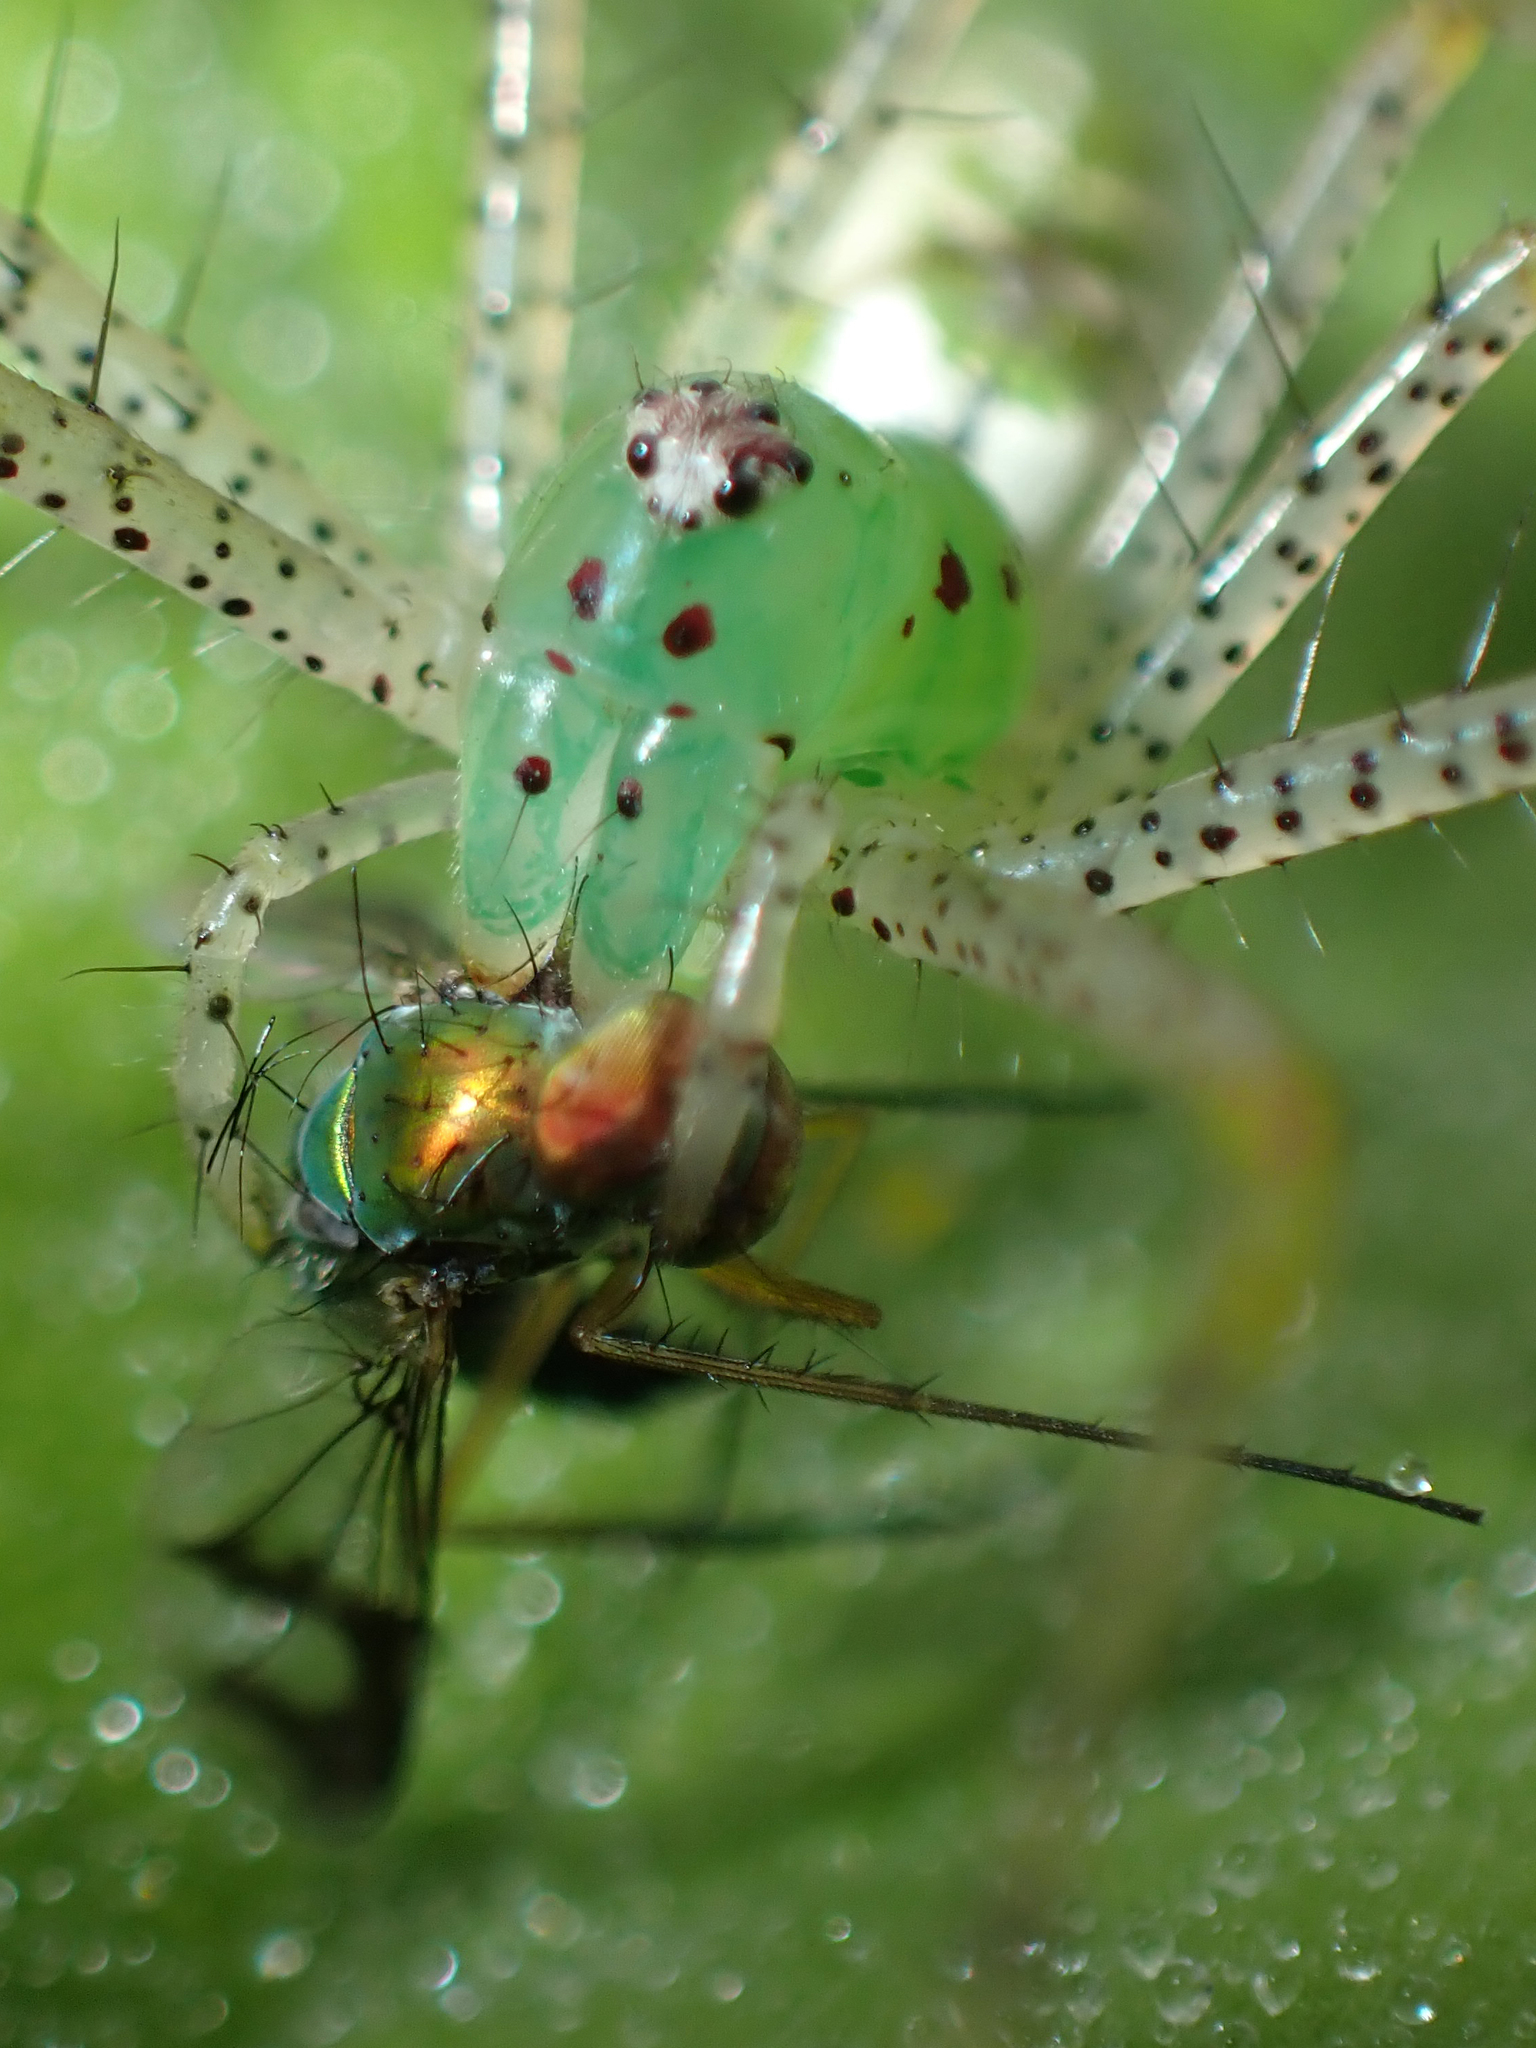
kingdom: Animalia
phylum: Arthropoda
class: Arachnida
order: Araneae
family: Oxyopidae
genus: Peucetia
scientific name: Peucetia viridans
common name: Lynx spiders
